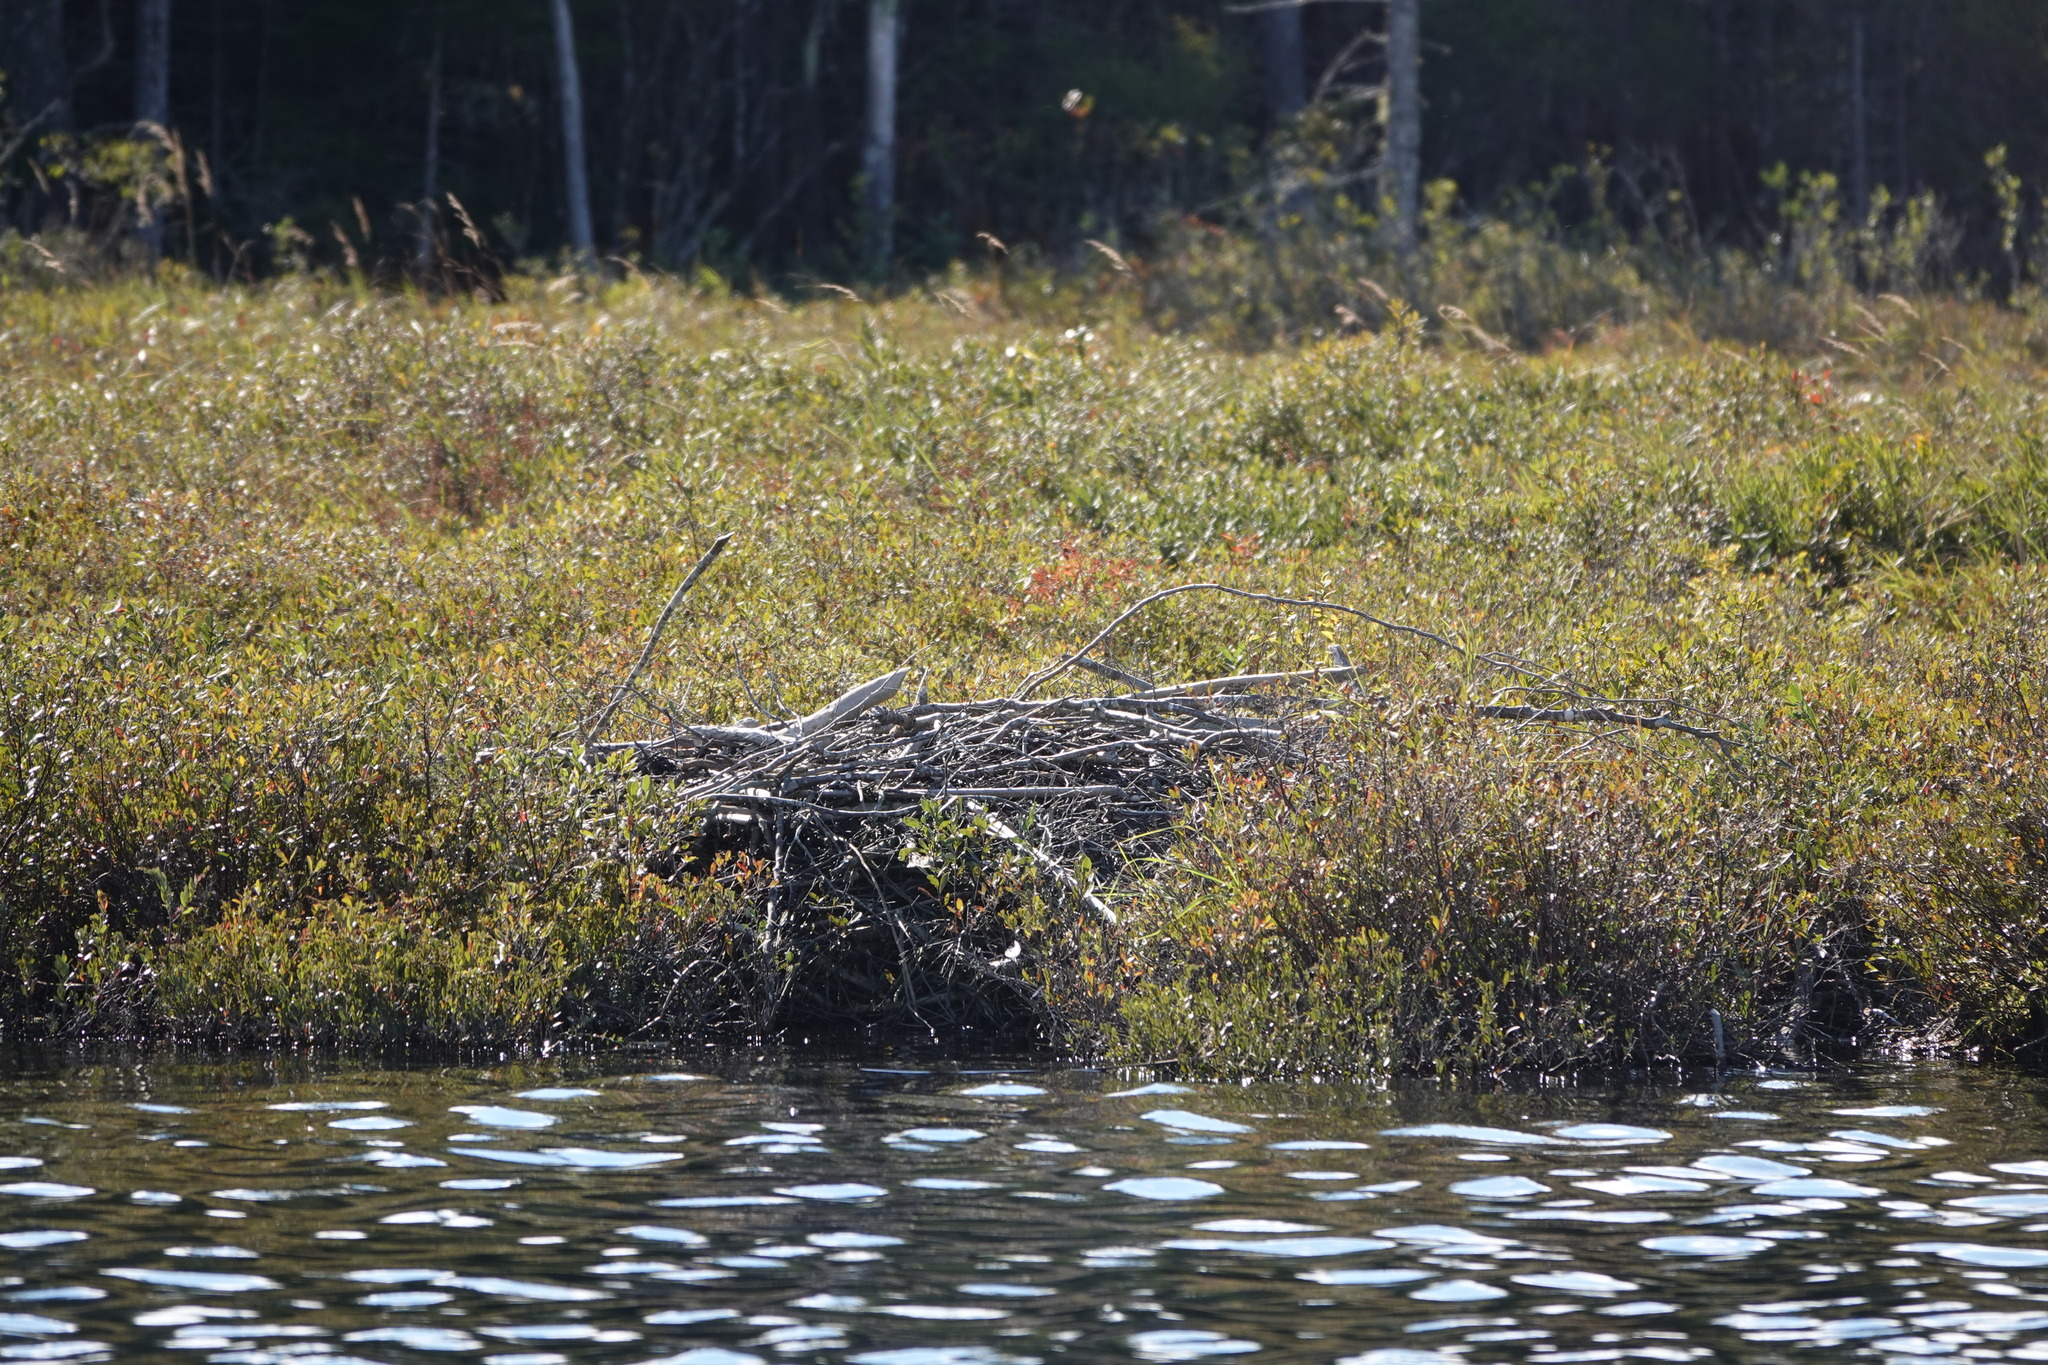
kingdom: Animalia
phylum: Chordata
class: Mammalia
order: Rodentia
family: Castoridae
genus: Castor
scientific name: Castor canadensis
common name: American beaver
